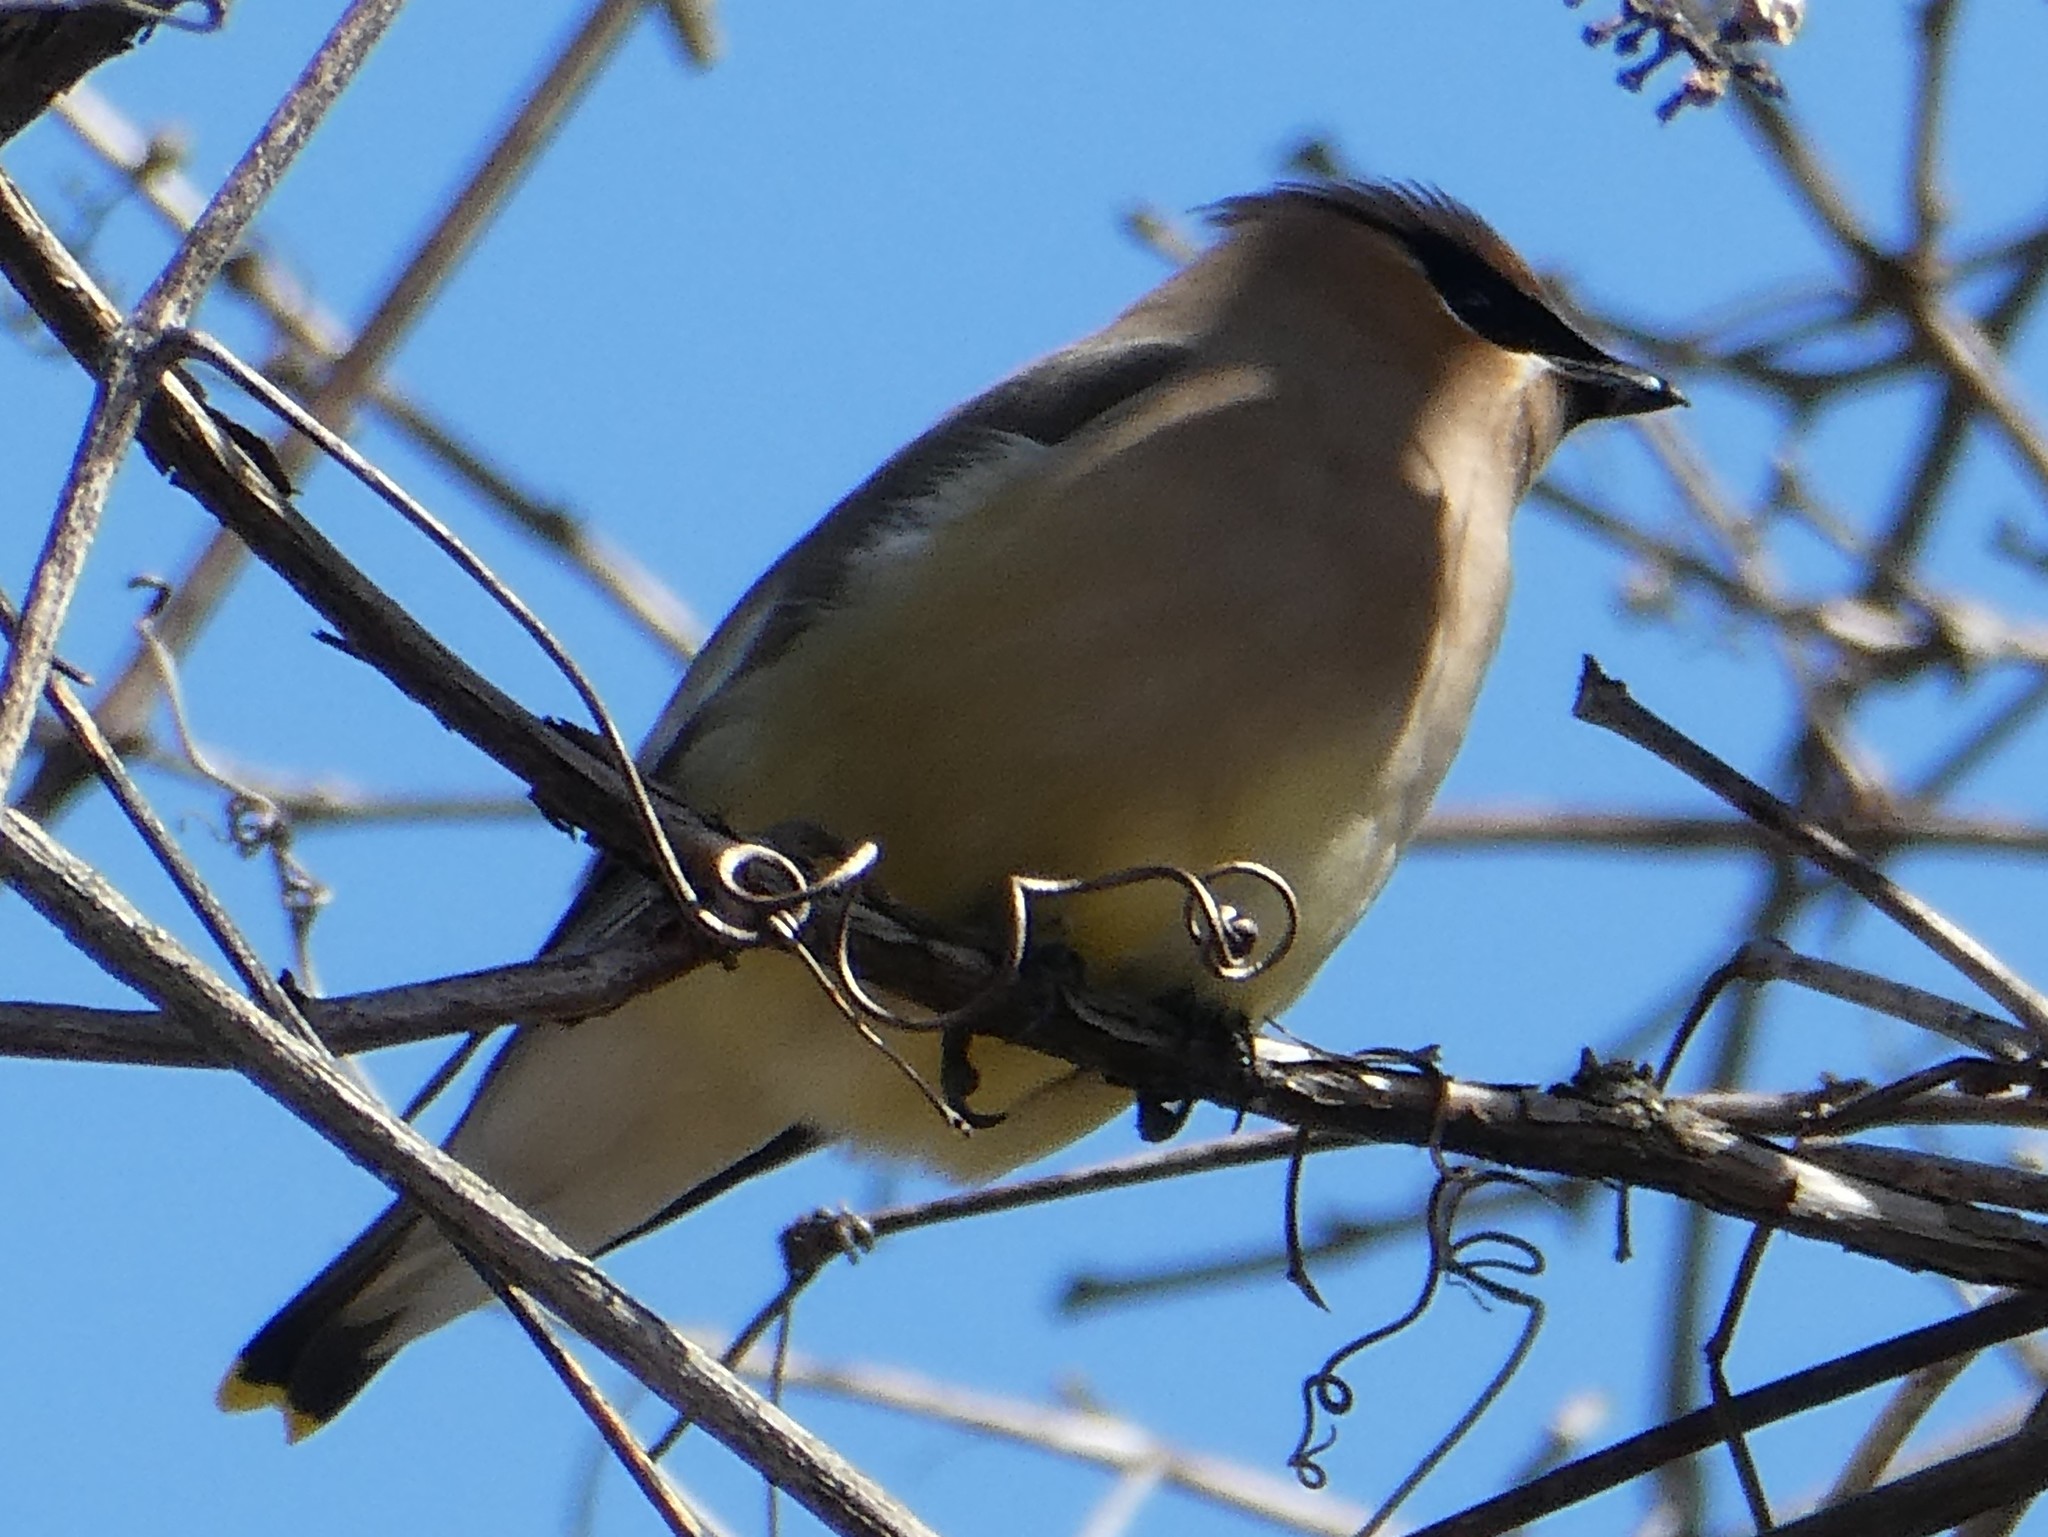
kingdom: Animalia
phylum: Chordata
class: Aves
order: Passeriformes
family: Bombycillidae
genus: Bombycilla
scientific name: Bombycilla cedrorum
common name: Cedar waxwing
